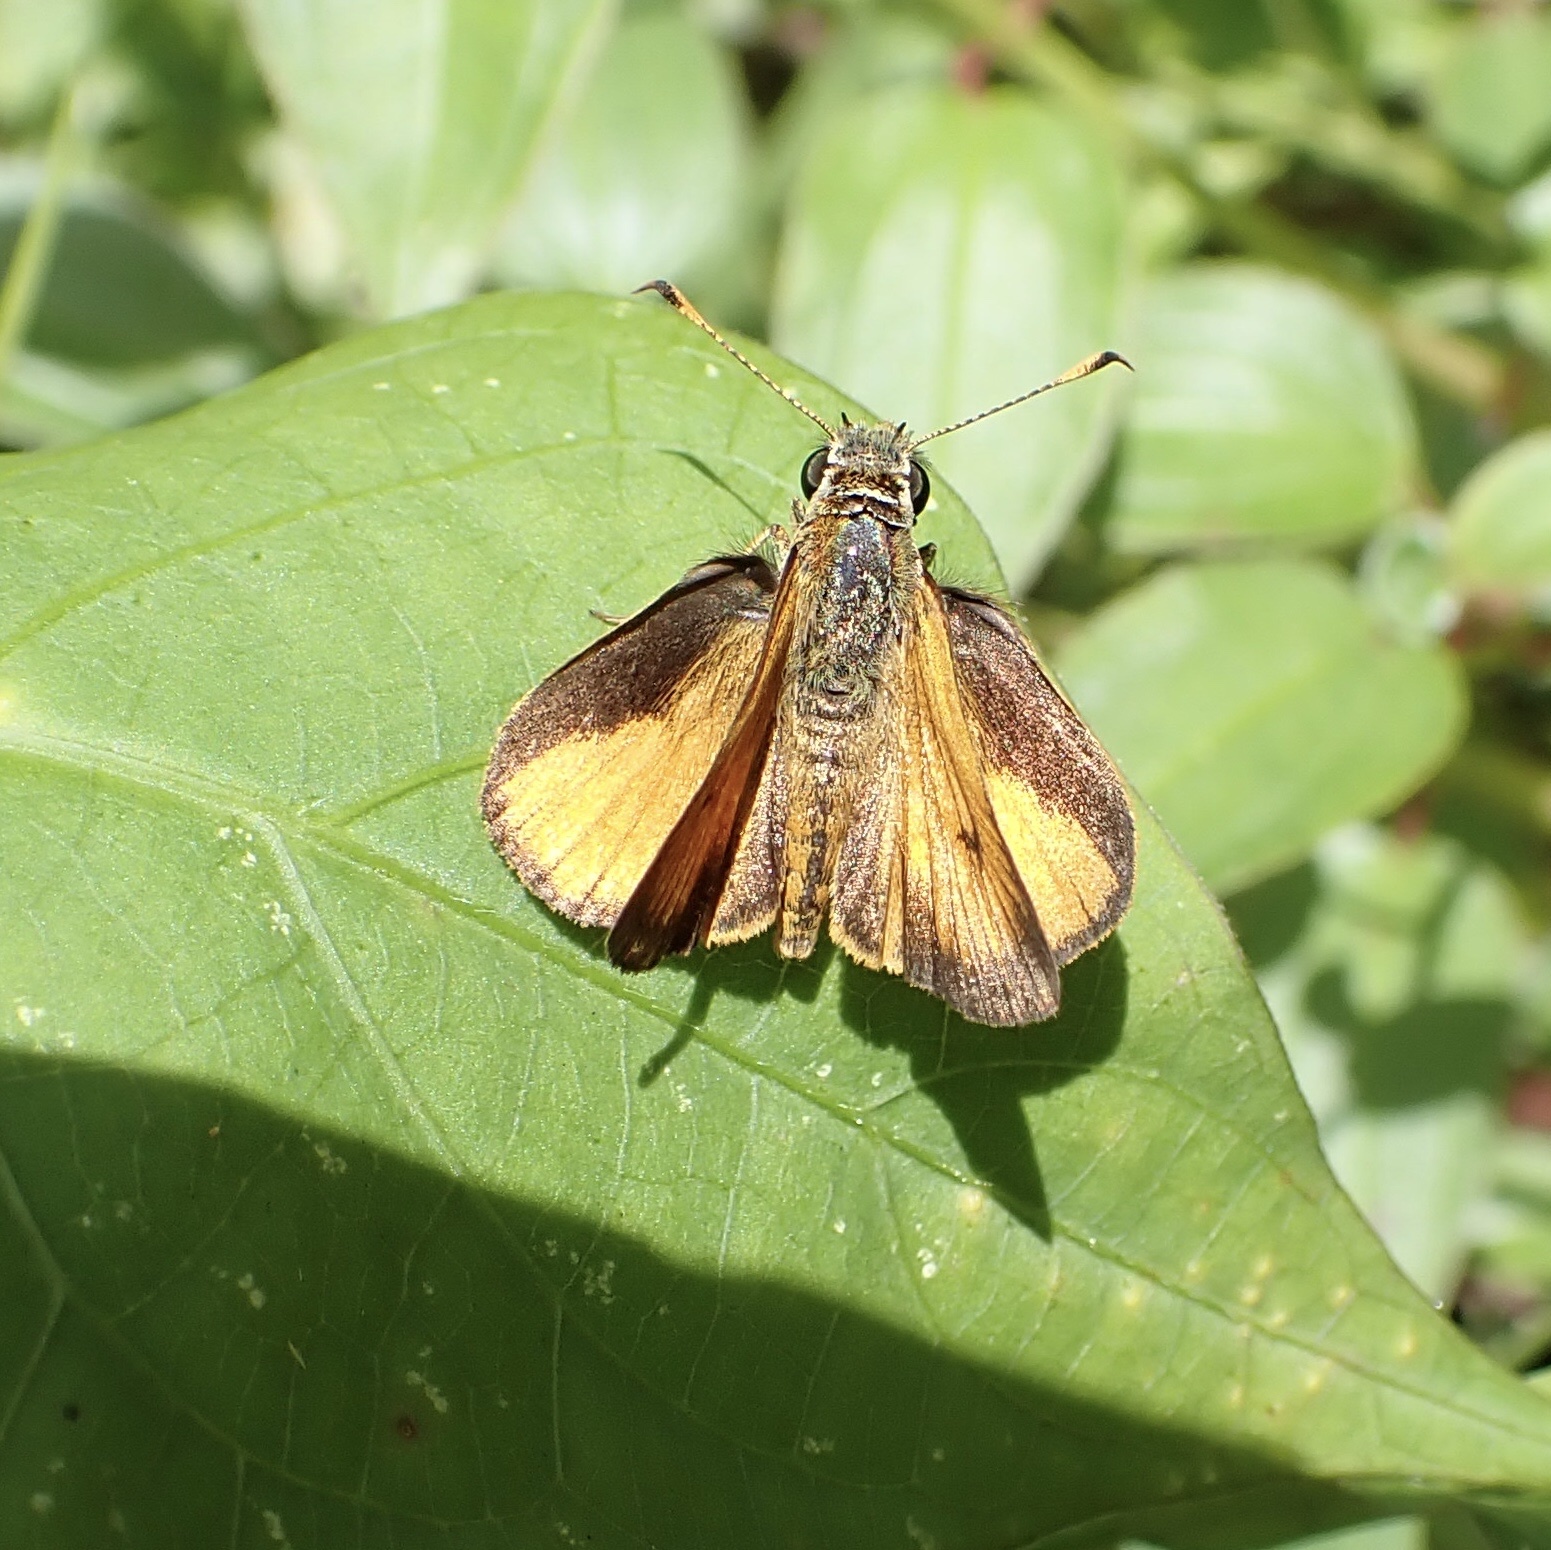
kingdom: Animalia
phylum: Arthropoda
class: Insecta
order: Lepidoptera
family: Hesperiidae
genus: Choranthus
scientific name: Choranthus vitellius
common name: Vitellius skipper
